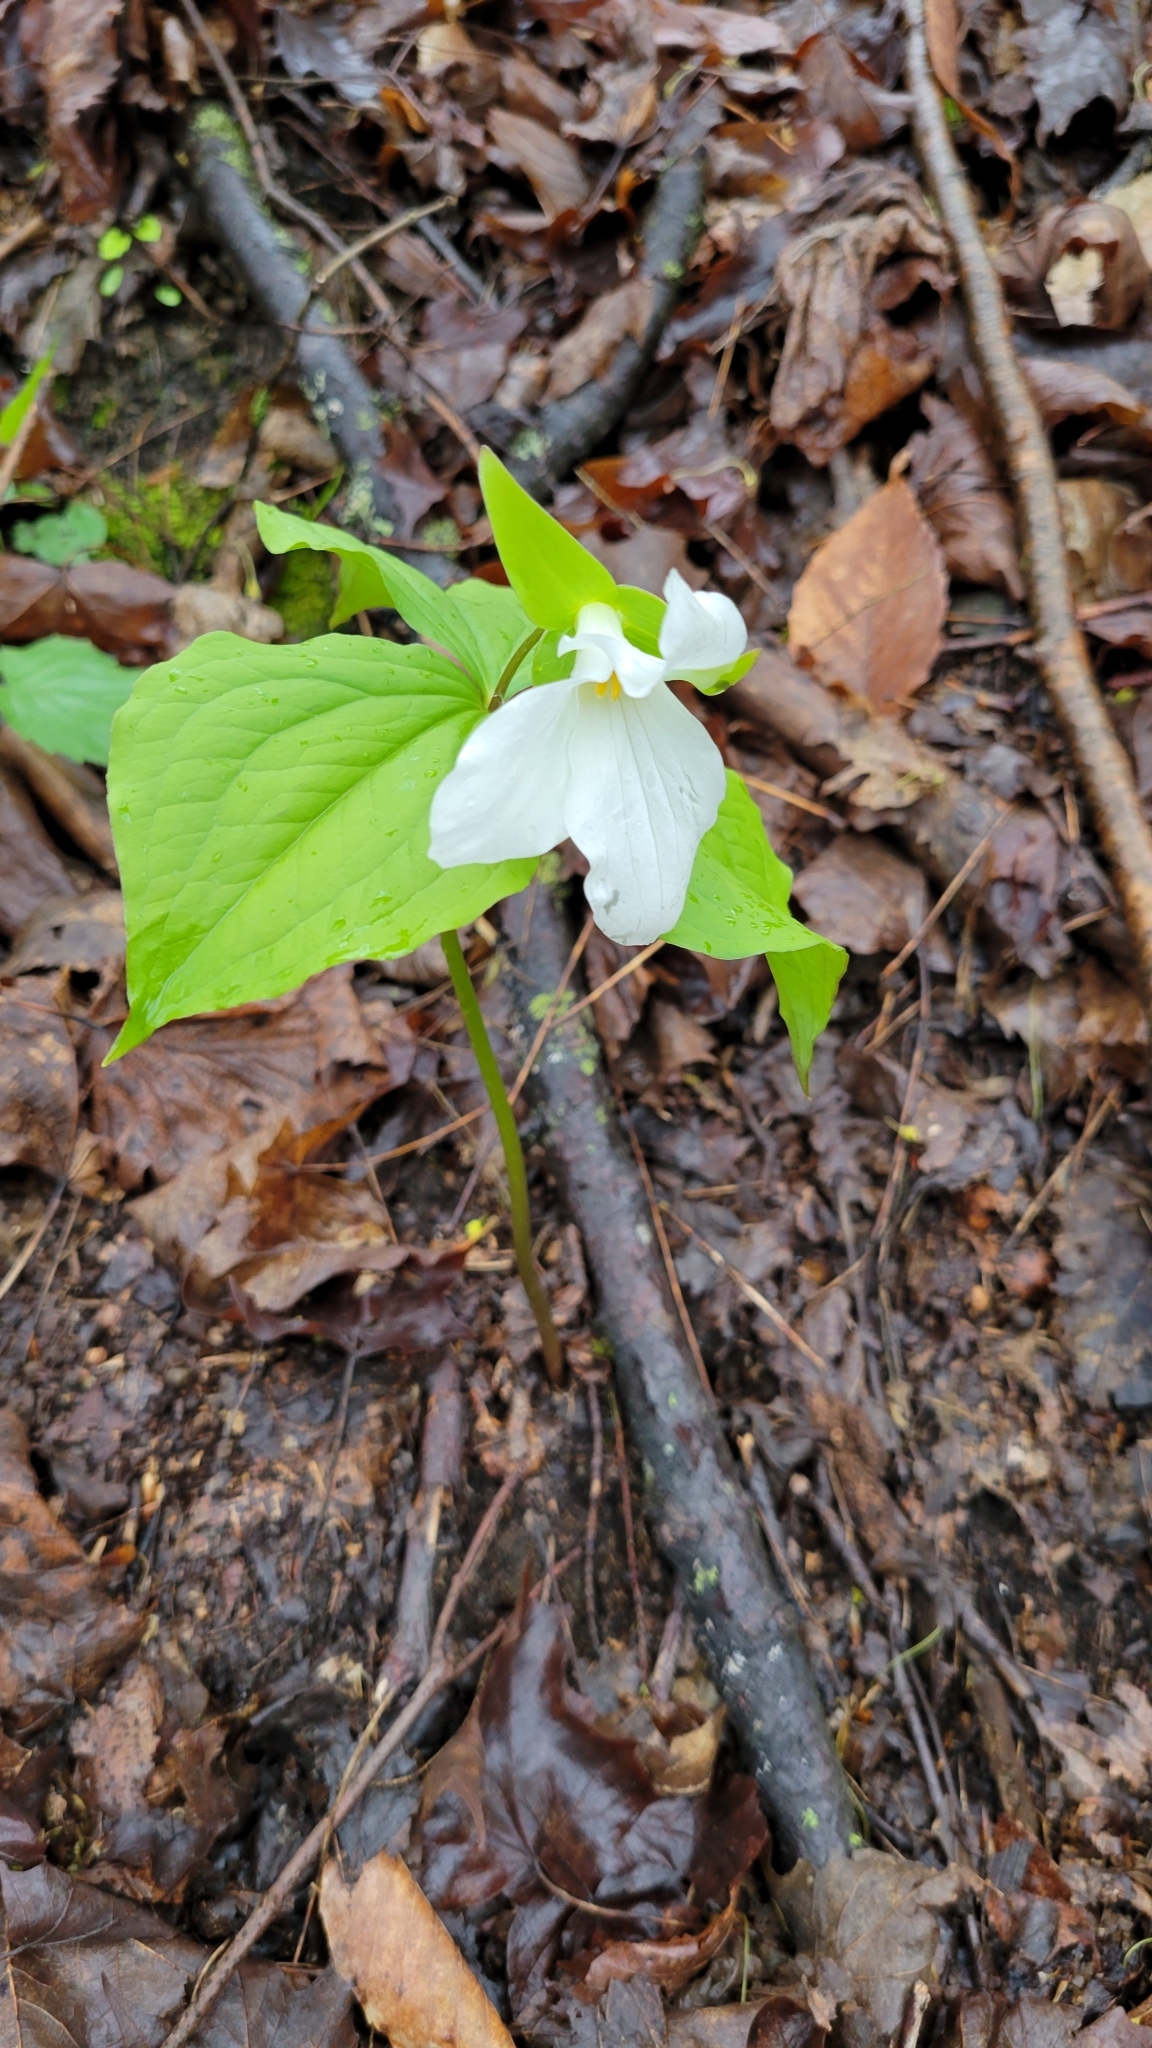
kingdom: Plantae
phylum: Tracheophyta
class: Liliopsida
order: Liliales
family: Melanthiaceae
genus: Trillium
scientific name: Trillium grandiflorum
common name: Great white trillium
